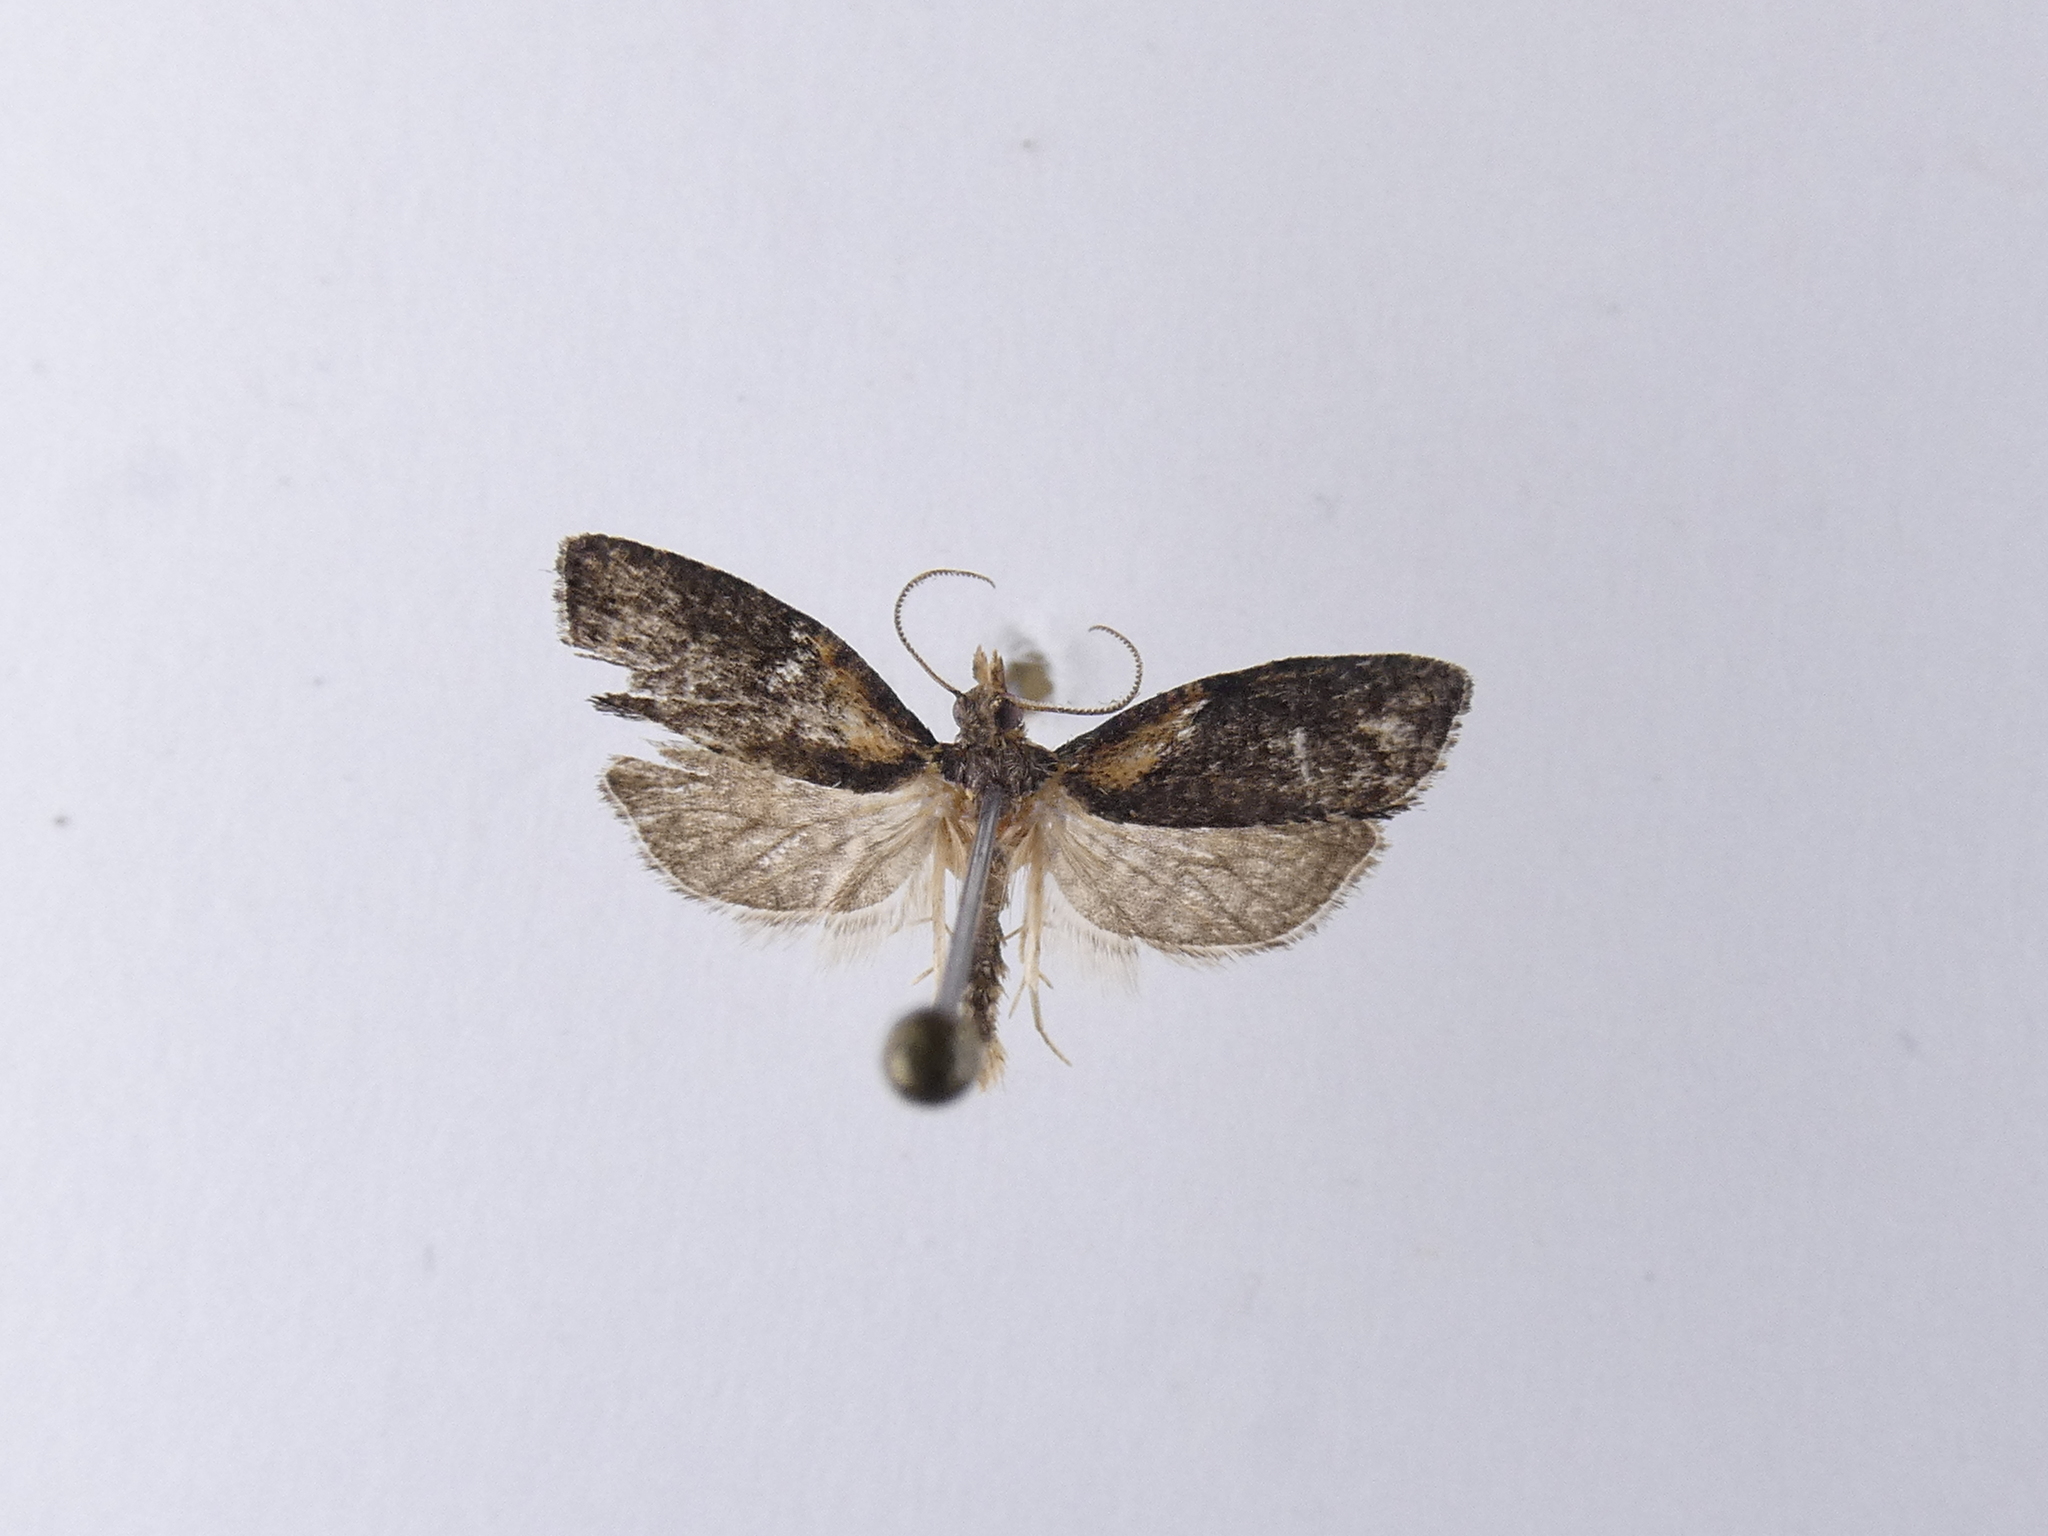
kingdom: Animalia
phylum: Arthropoda
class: Insecta
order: Lepidoptera
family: Tortricidae
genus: Capua
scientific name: Capua intractana
